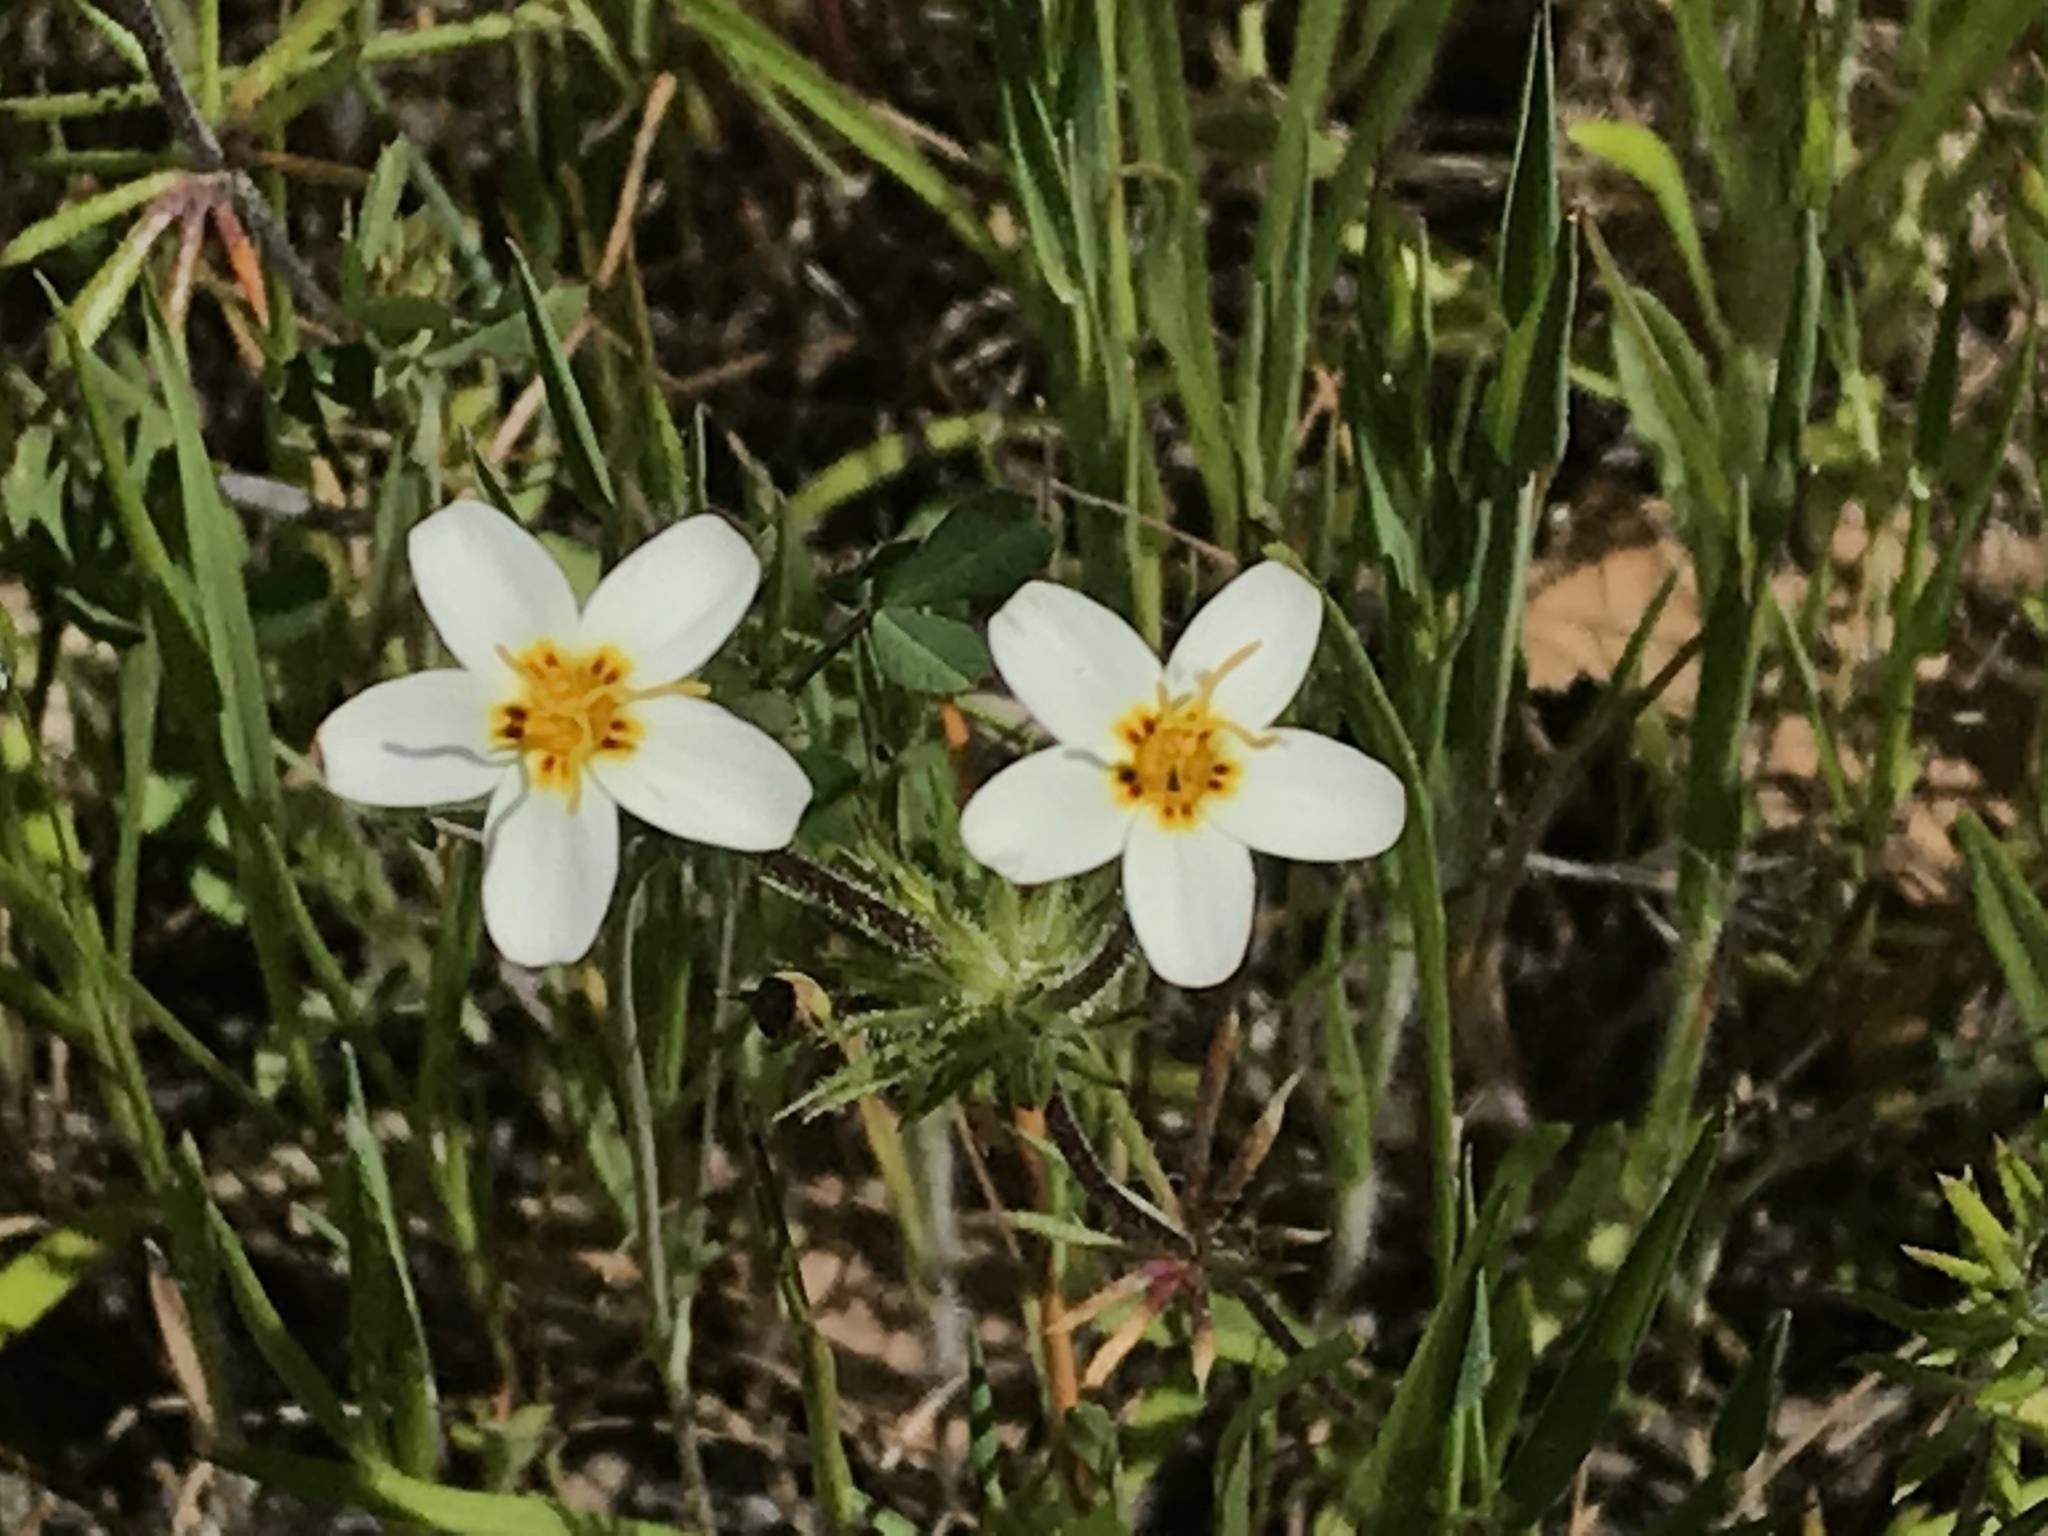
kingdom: Plantae
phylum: Tracheophyta
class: Magnoliopsida
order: Ericales
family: Polemoniaceae
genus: Leptosiphon
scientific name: Leptosiphon parviflorus
